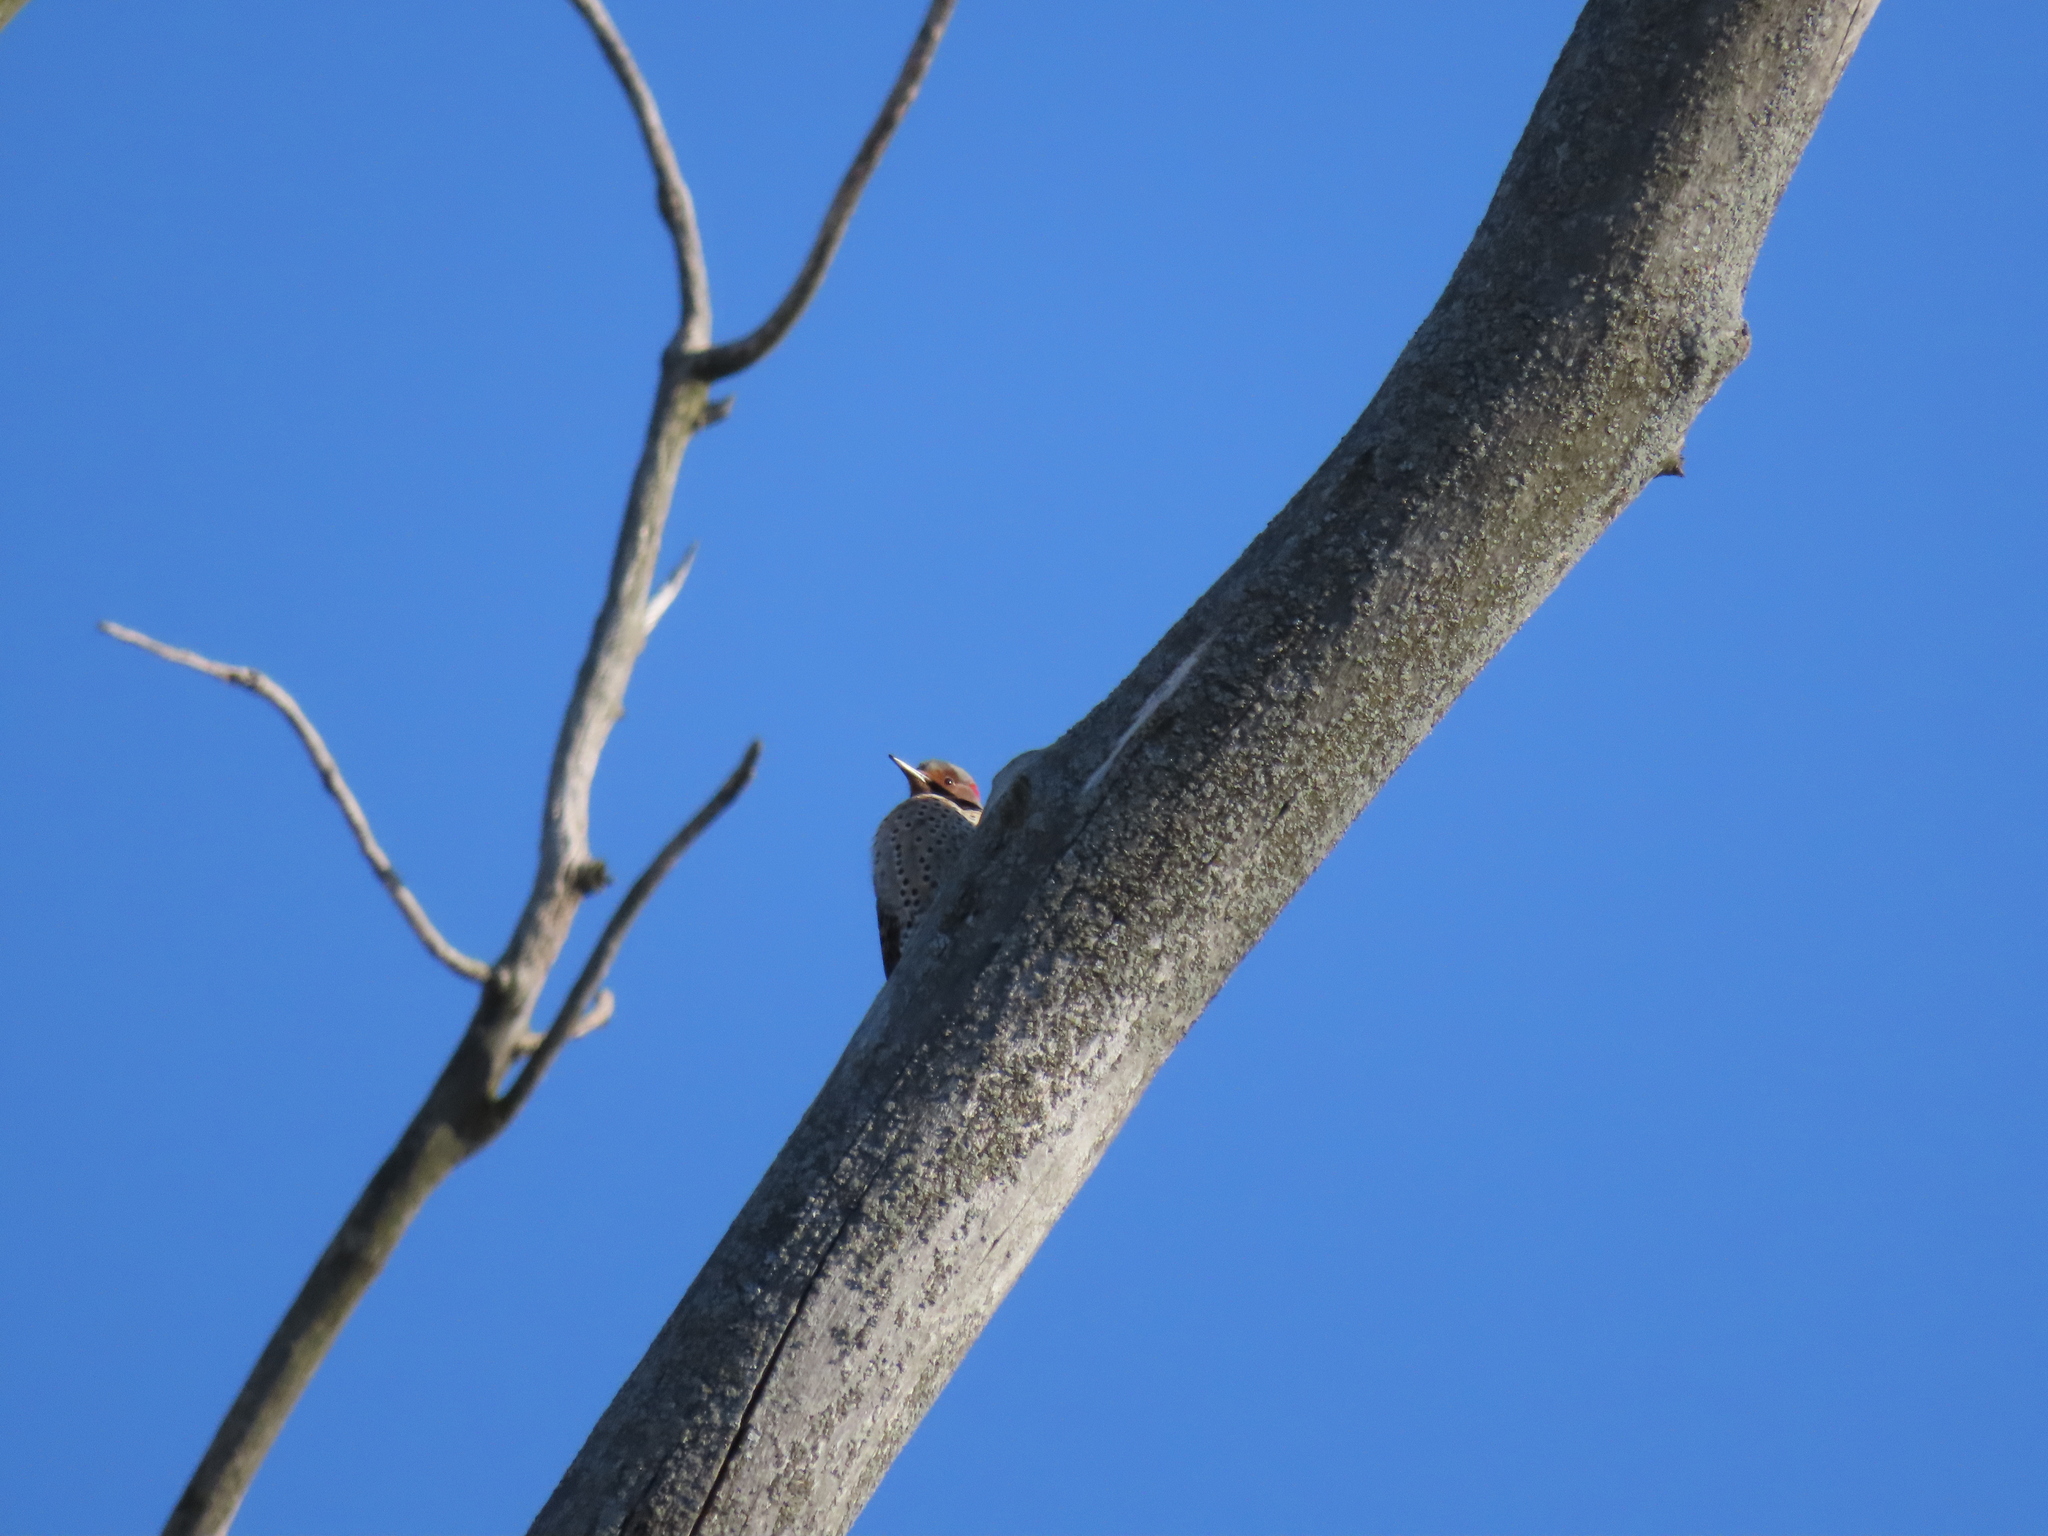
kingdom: Animalia
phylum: Chordata
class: Aves
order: Piciformes
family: Picidae
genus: Colaptes
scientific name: Colaptes auratus
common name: Northern flicker
